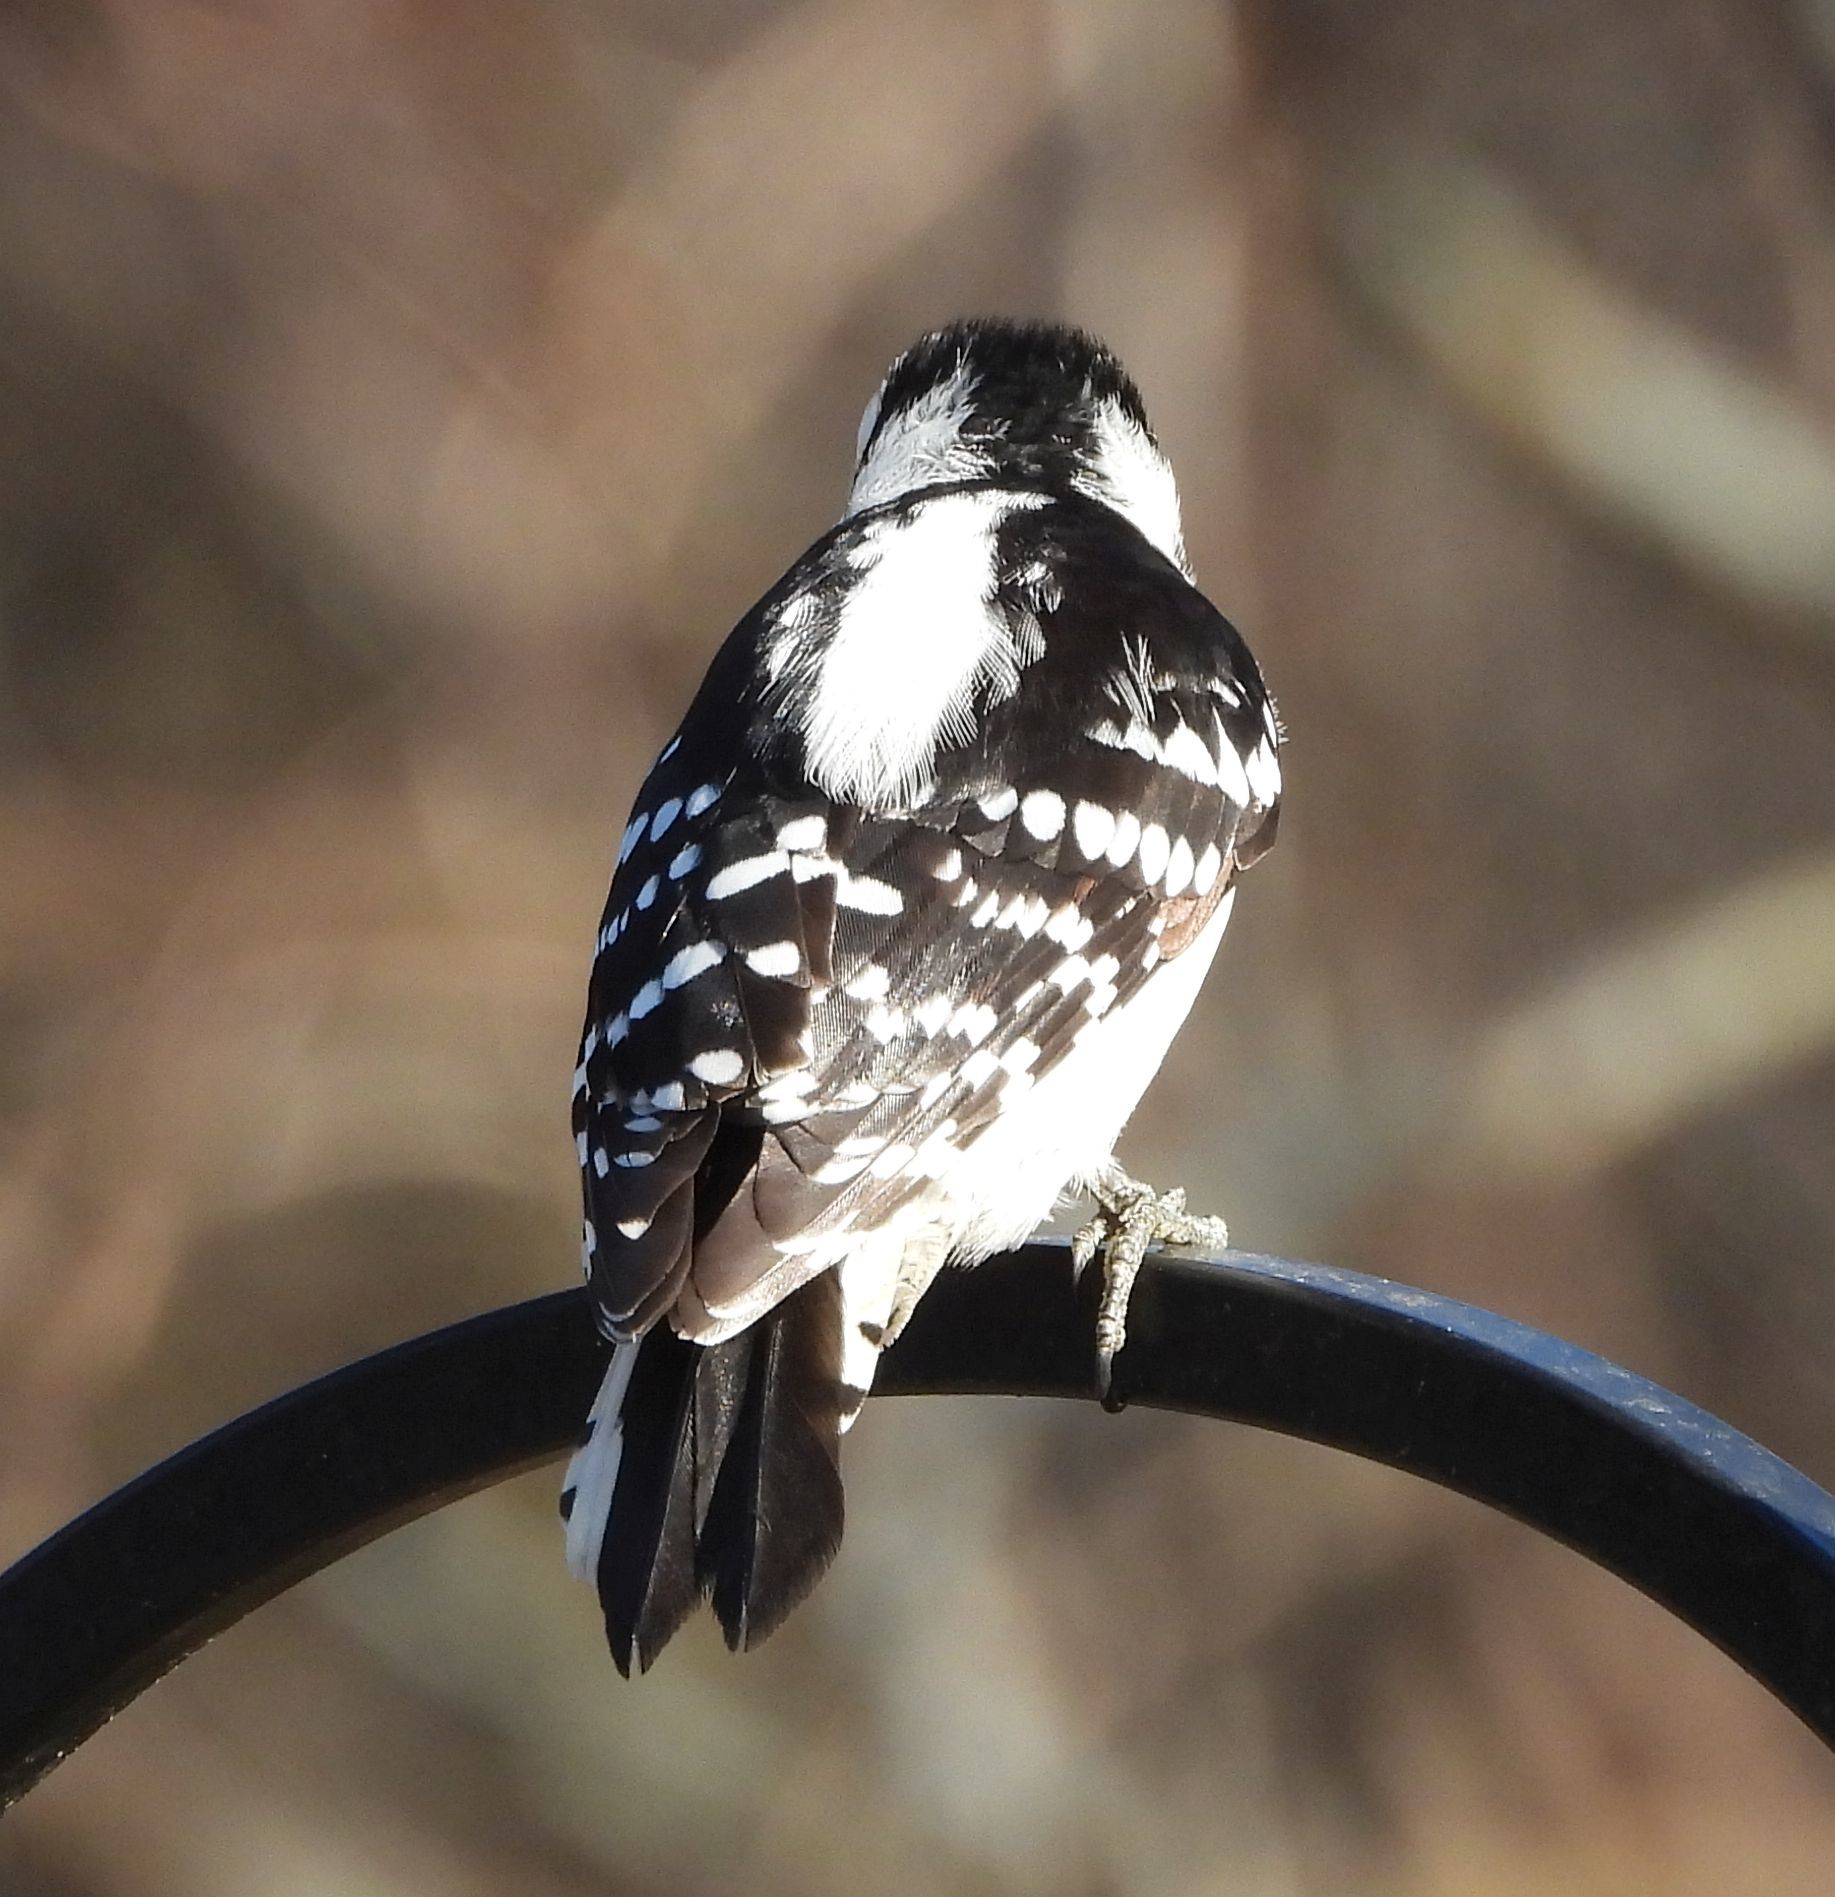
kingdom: Animalia
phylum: Chordata
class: Aves
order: Piciformes
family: Picidae
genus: Dryobates
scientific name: Dryobates pubescens
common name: Downy woodpecker
